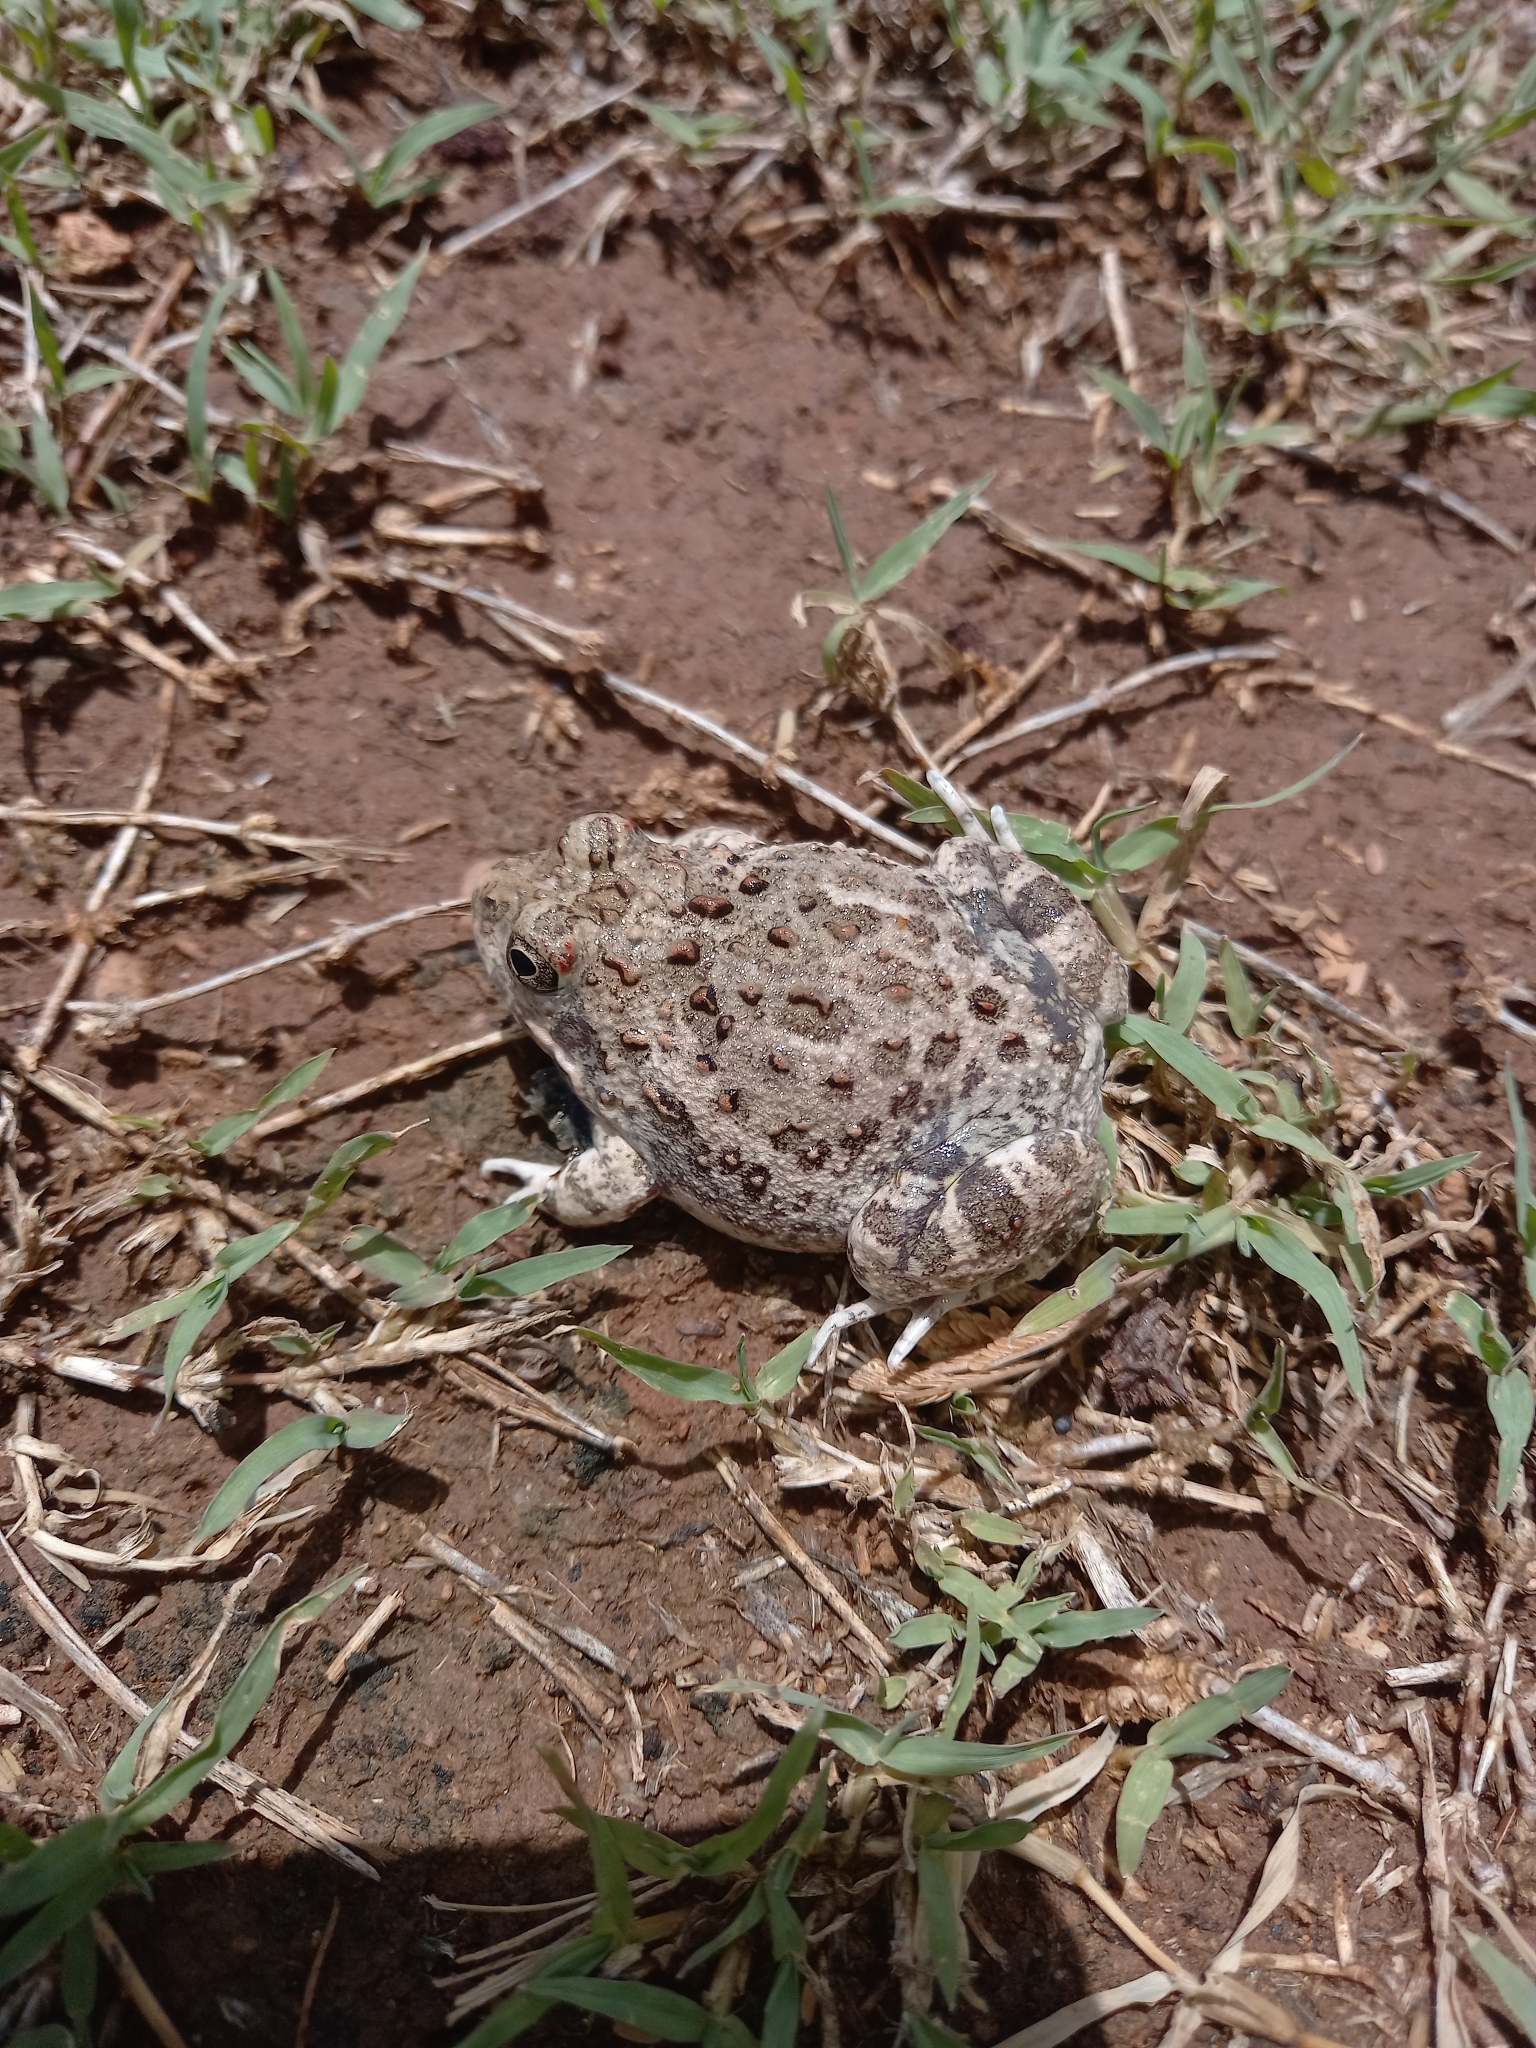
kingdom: Animalia
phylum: Chordata
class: Amphibia
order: Anura
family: Pyxicephalidae
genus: Tomopterna
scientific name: Tomopterna delalandii
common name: Delalande's burrowing bullfrog
